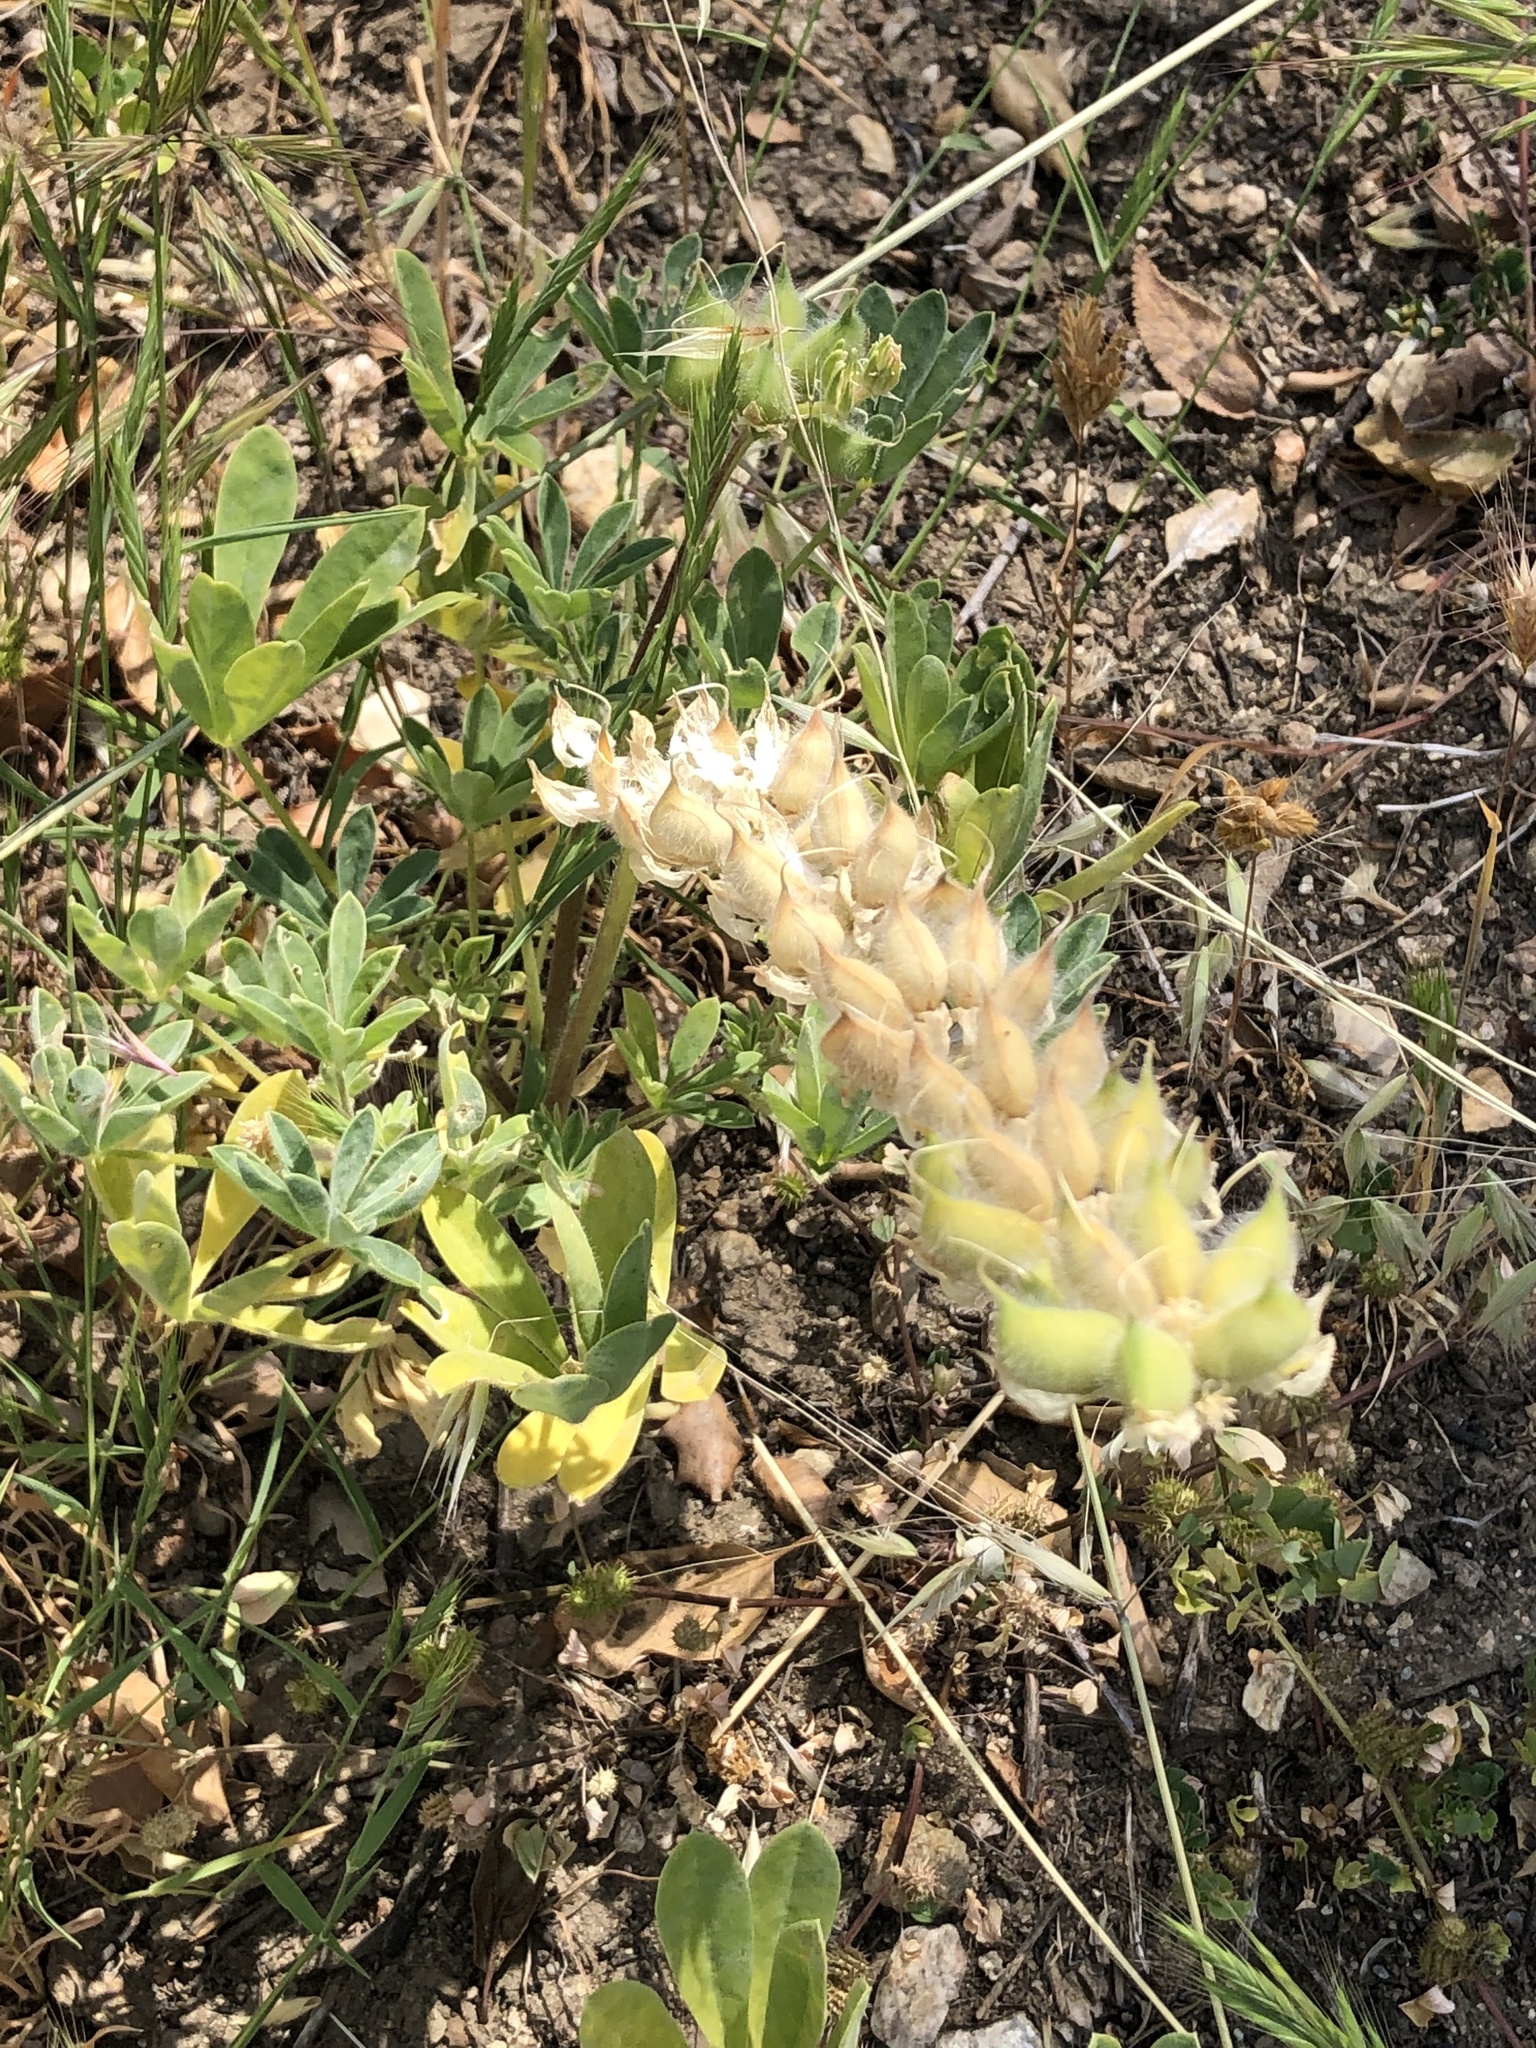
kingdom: Plantae
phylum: Tracheophyta
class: Magnoliopsida
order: Fabales
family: Fabaceae
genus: Lupinus
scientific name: Lupinus microcarpus
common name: Chick lupine
